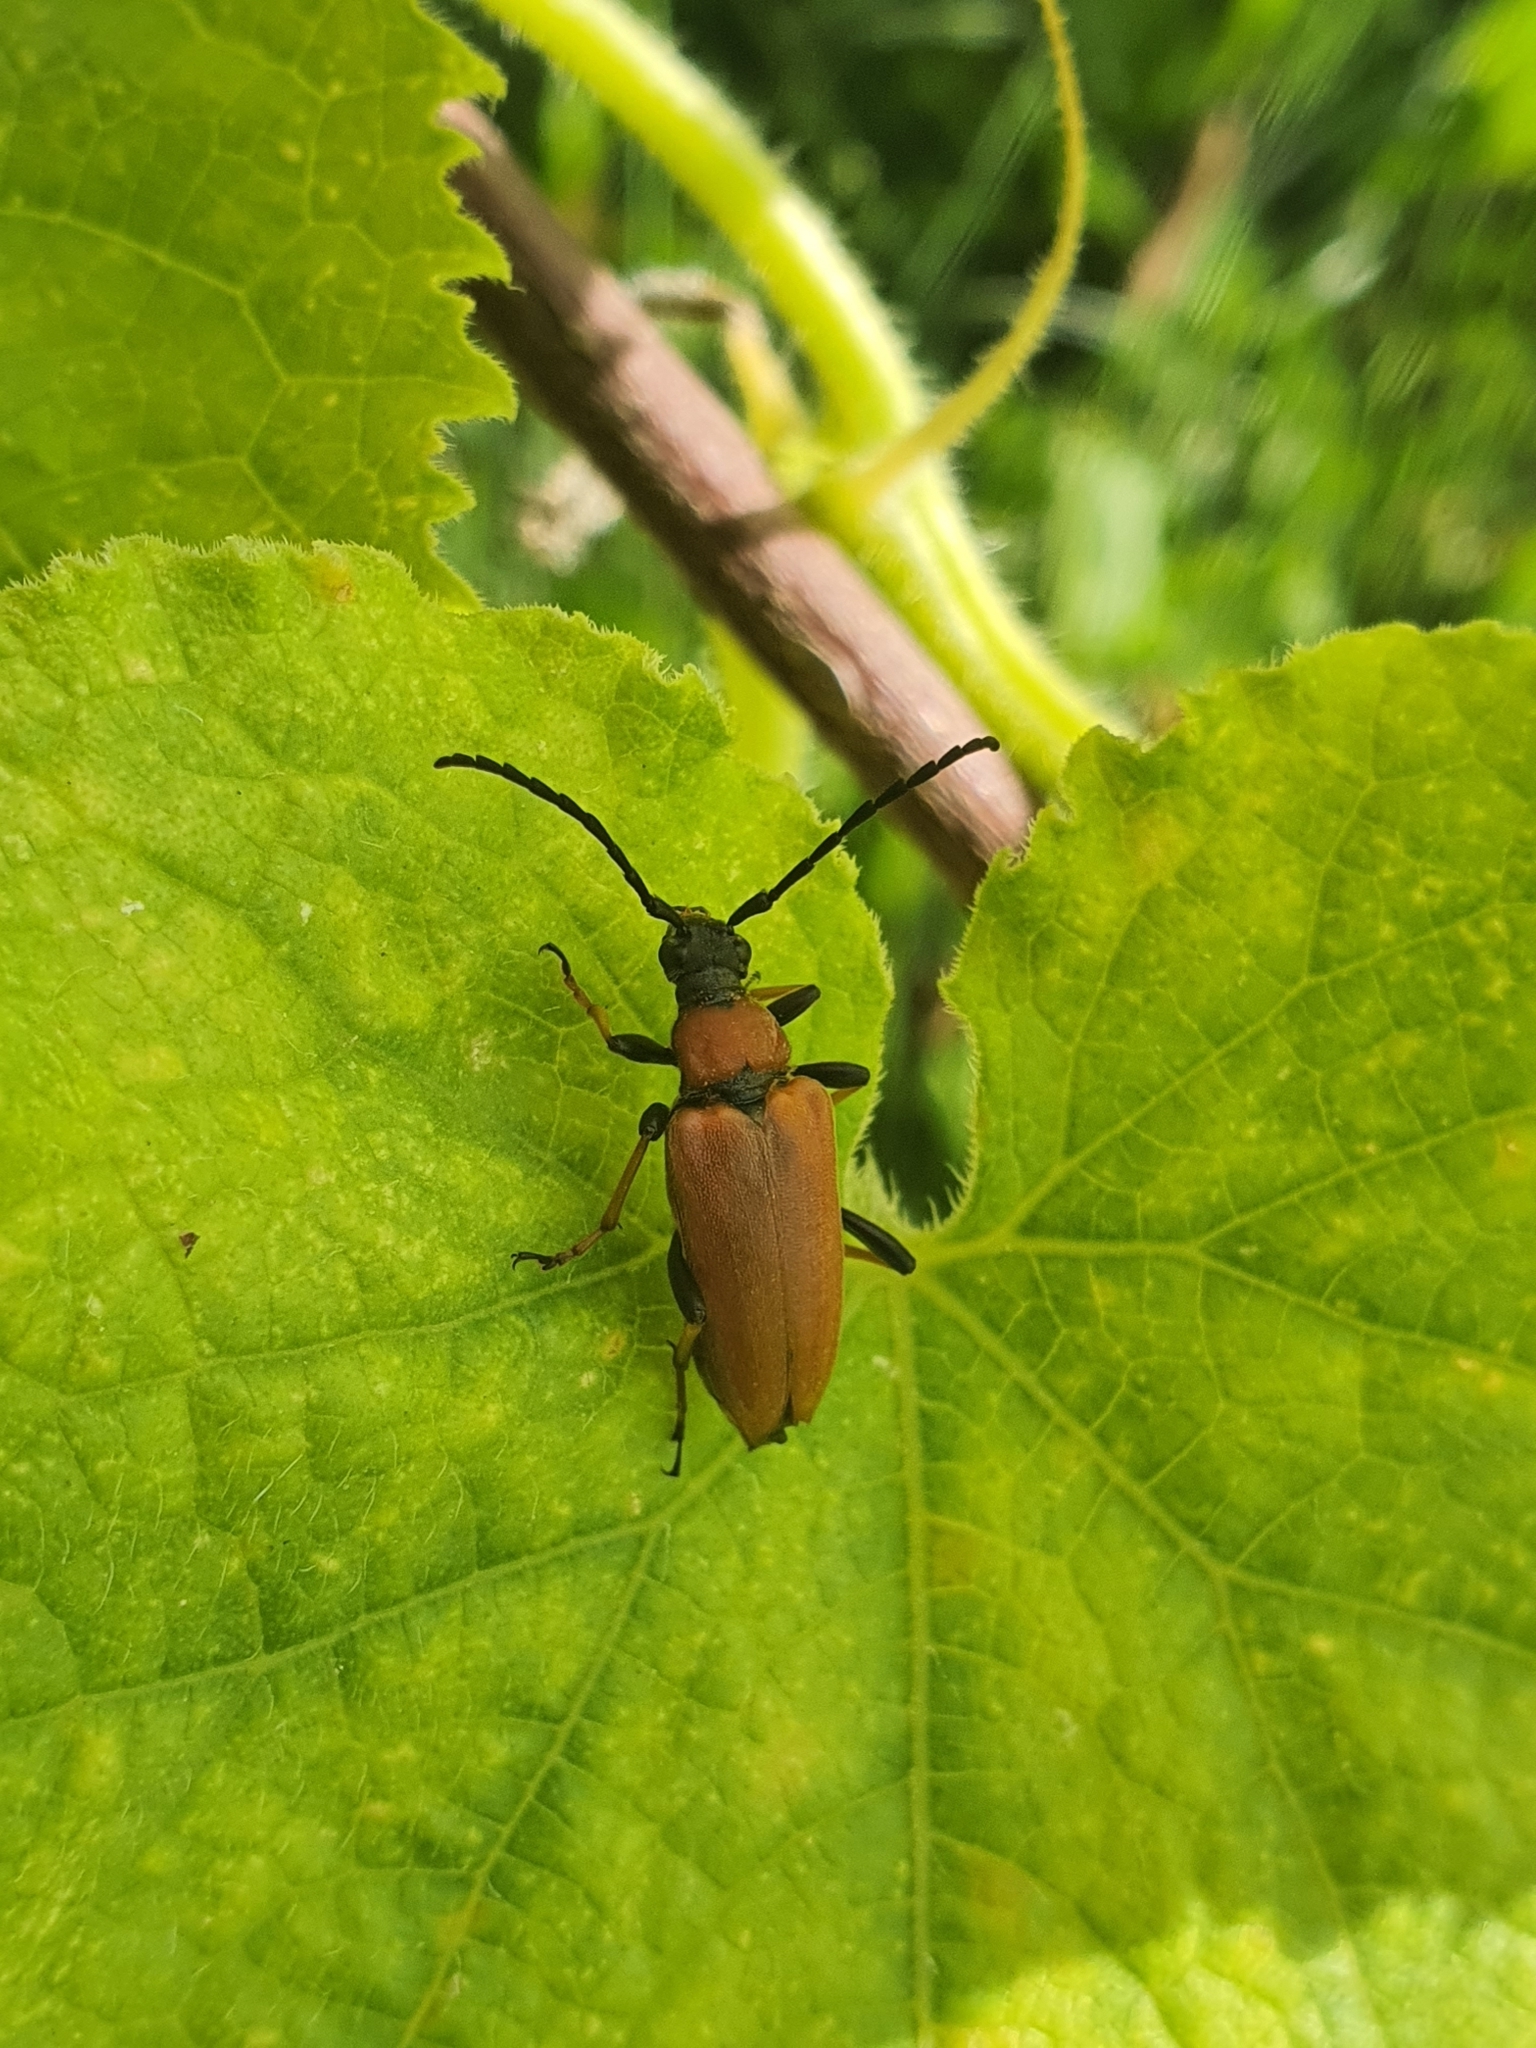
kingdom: Animalia
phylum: Arthropoda
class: Insecta
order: Coleoptera
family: Cerambycidae
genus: Stictoleptura
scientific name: Stictoleptura rubra
